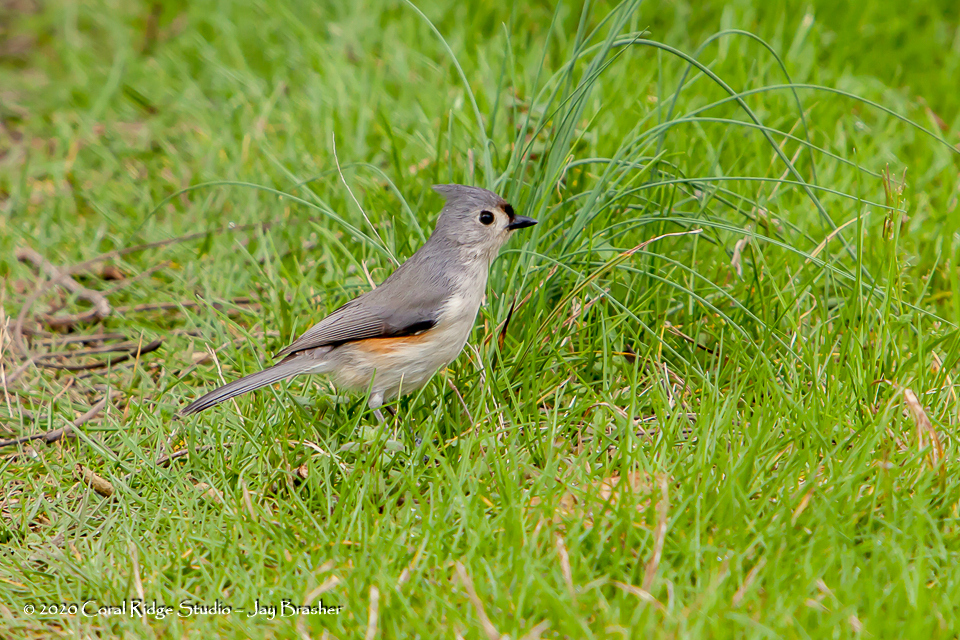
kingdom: Animalia
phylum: Chordata
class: Aves
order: Passeriformes
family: Paridae
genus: Baeolophus
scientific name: Baeolophus bicolor
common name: Tufted titmouse
